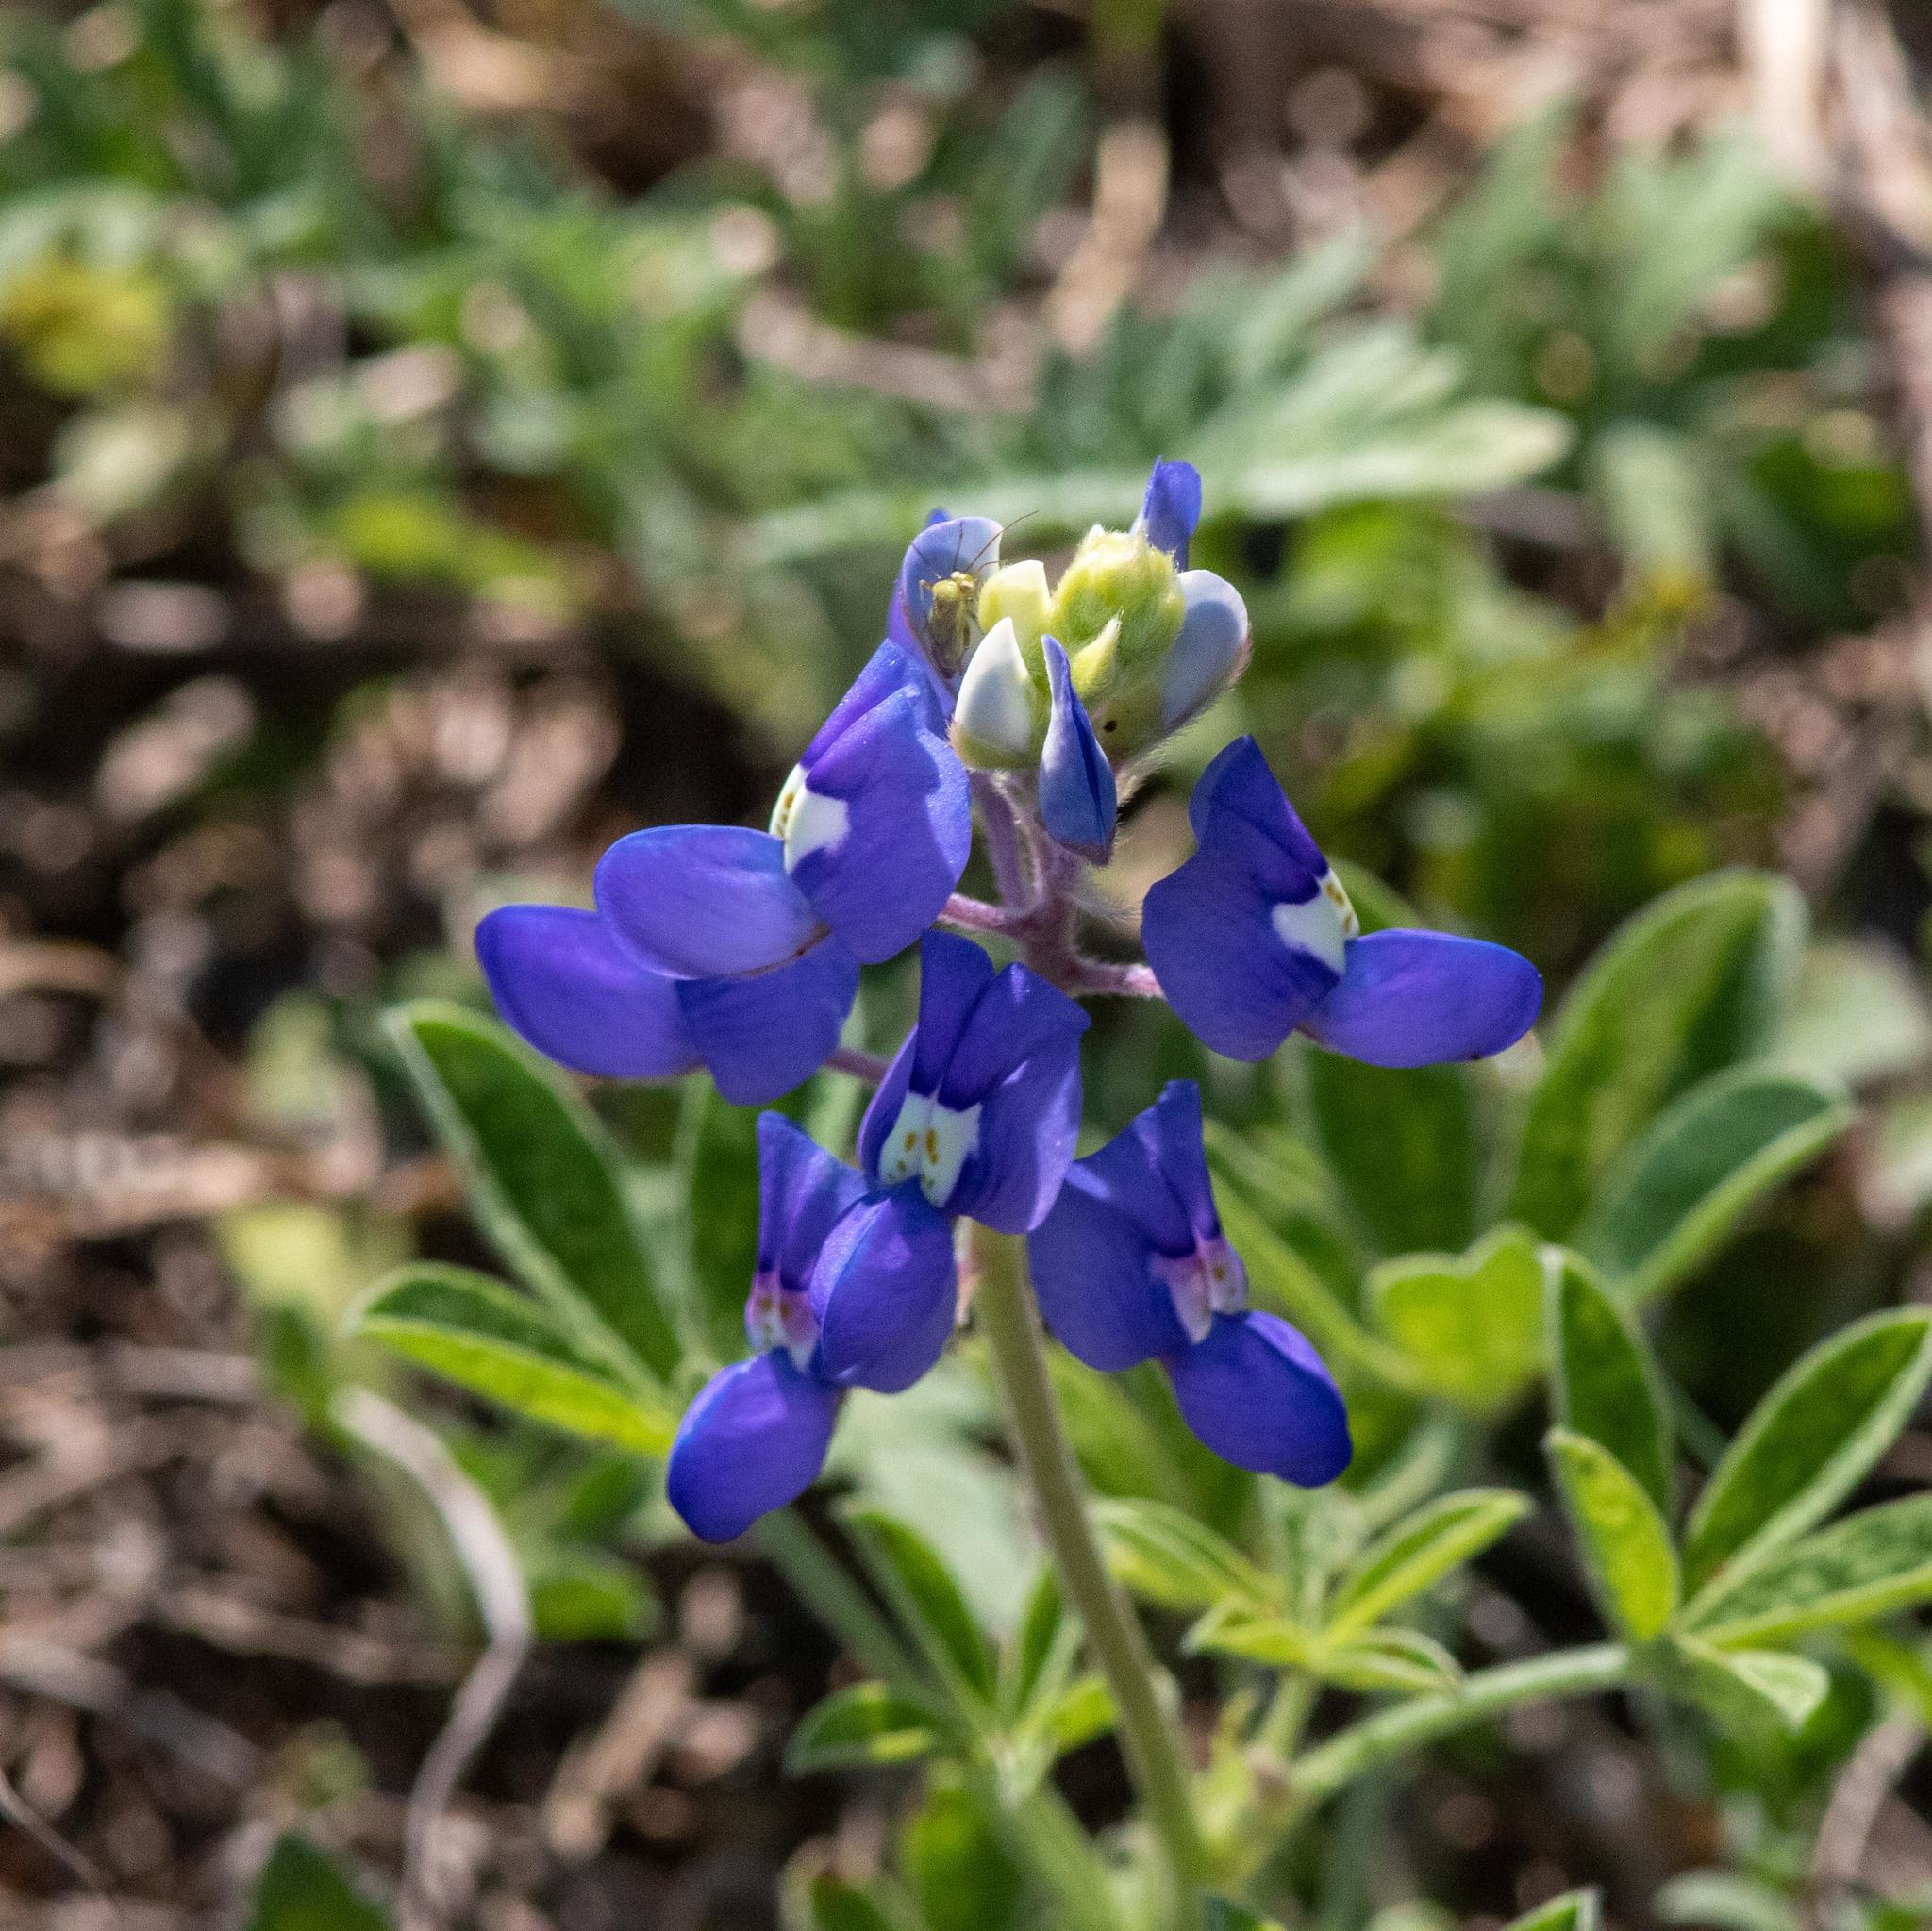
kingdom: Plantae
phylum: Tracheophyta
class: Magnoliopsida
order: Fabales
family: Fabaceae
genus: Lupinus
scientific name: Lupinus texensis
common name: Texas bluebonnet
